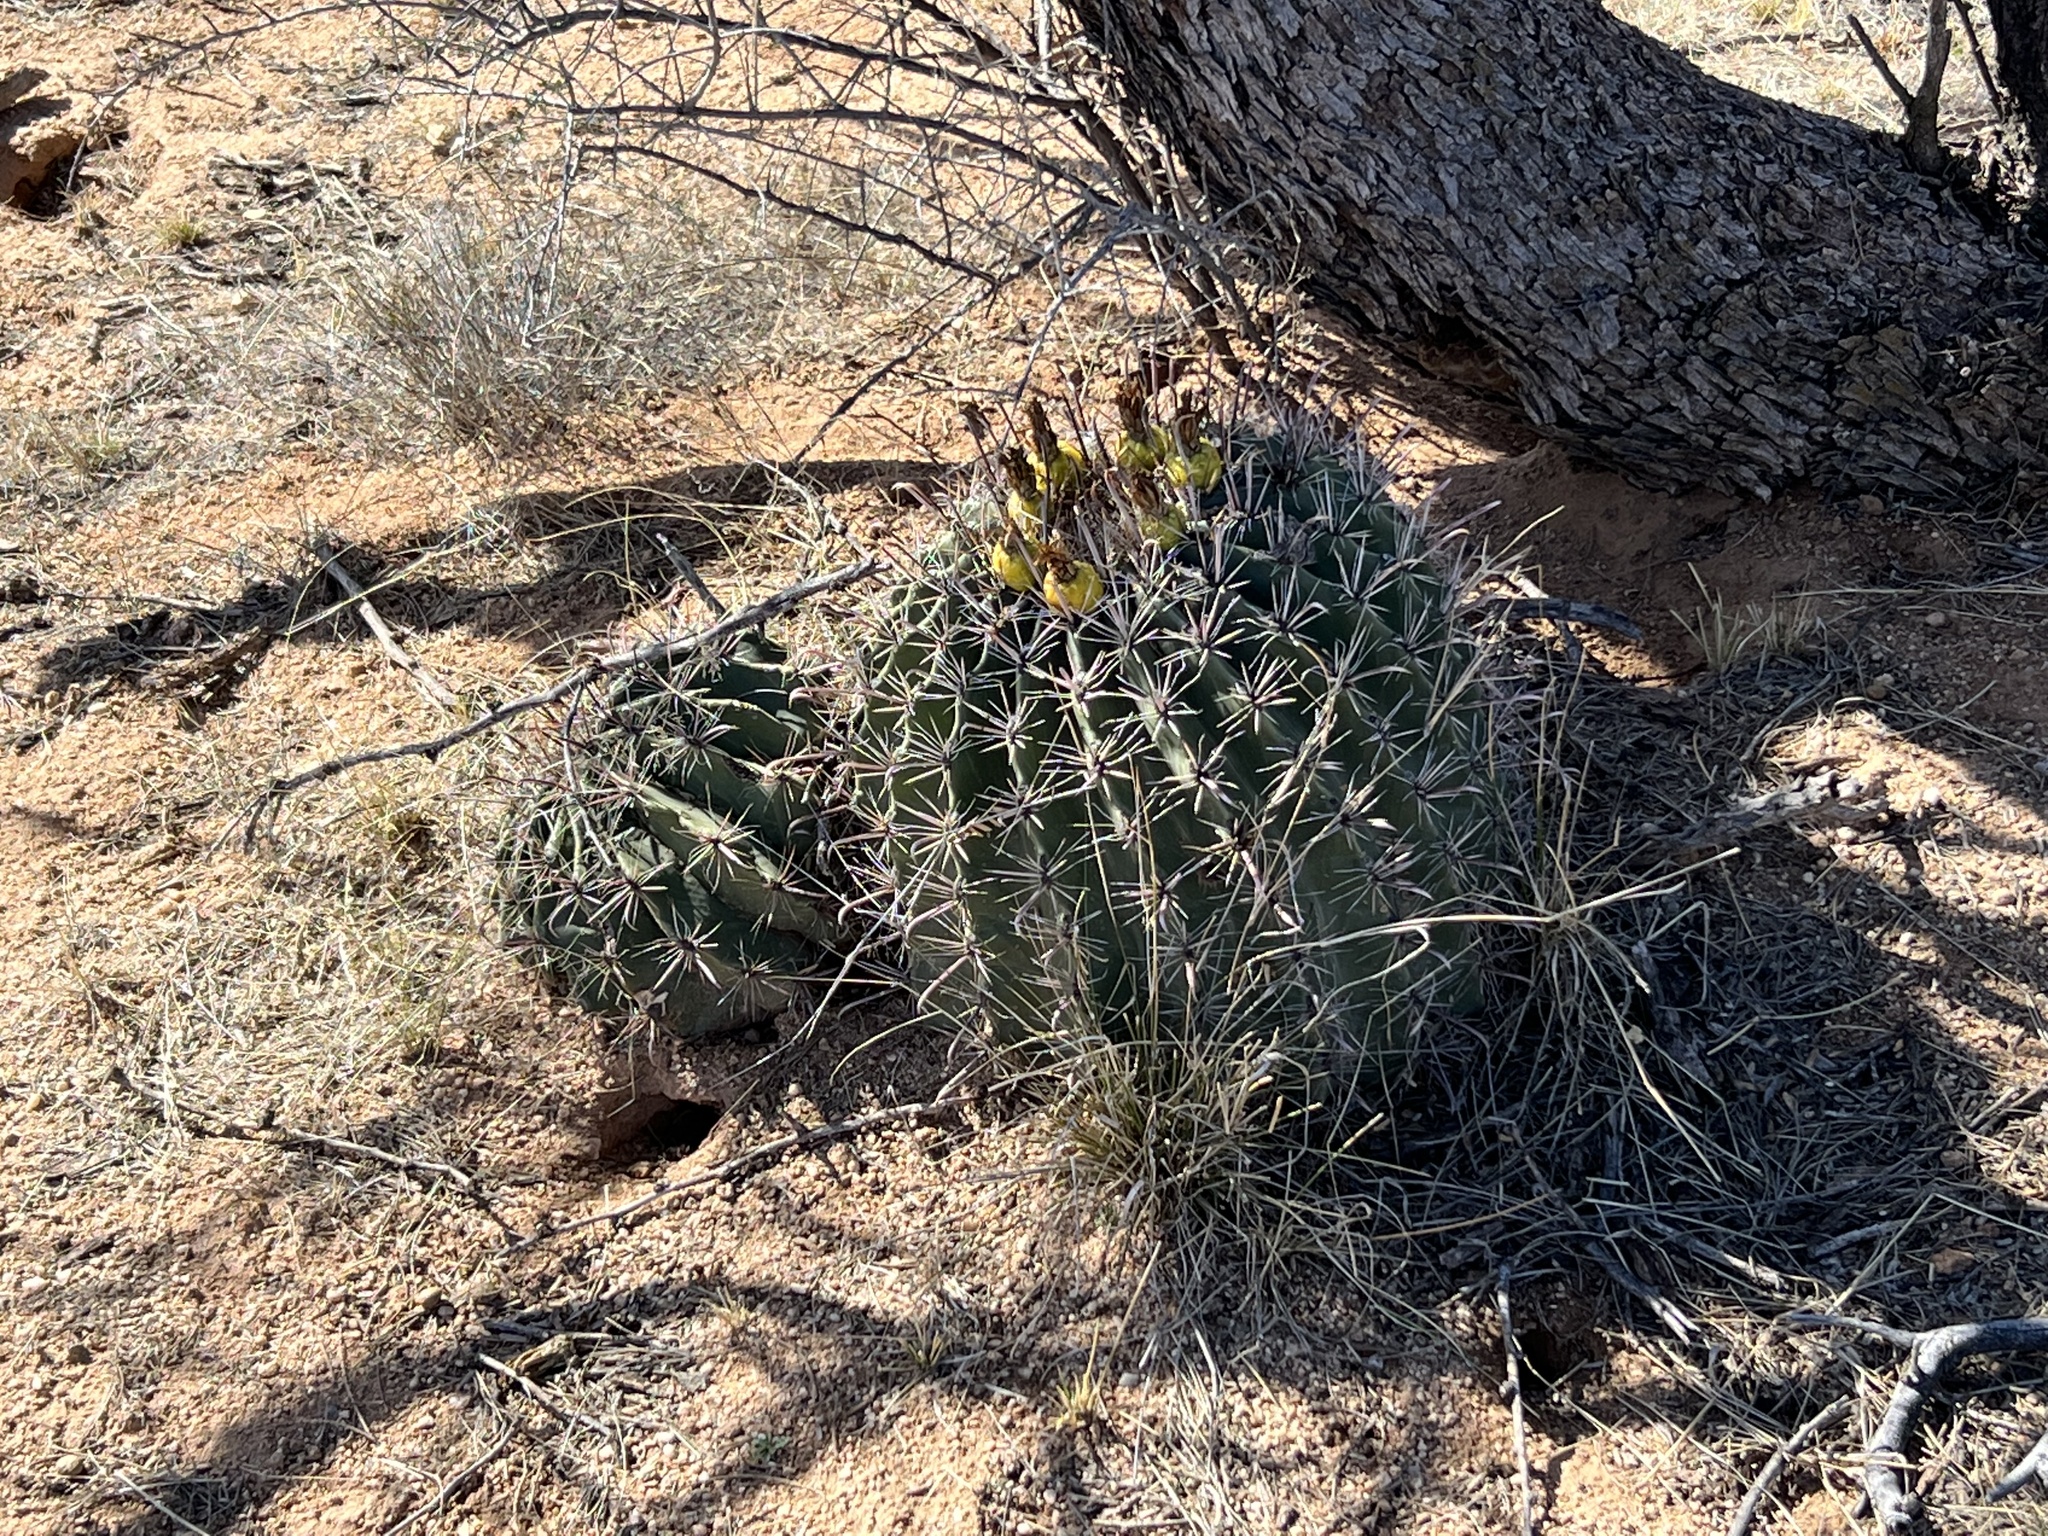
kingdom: Plantae
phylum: Tracheophyta
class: Magnoliopsida
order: Caryophyllales
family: Cactaceae
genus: Ferocactus
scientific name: Ferocactus wislizeni
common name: Candy barrel cactus
